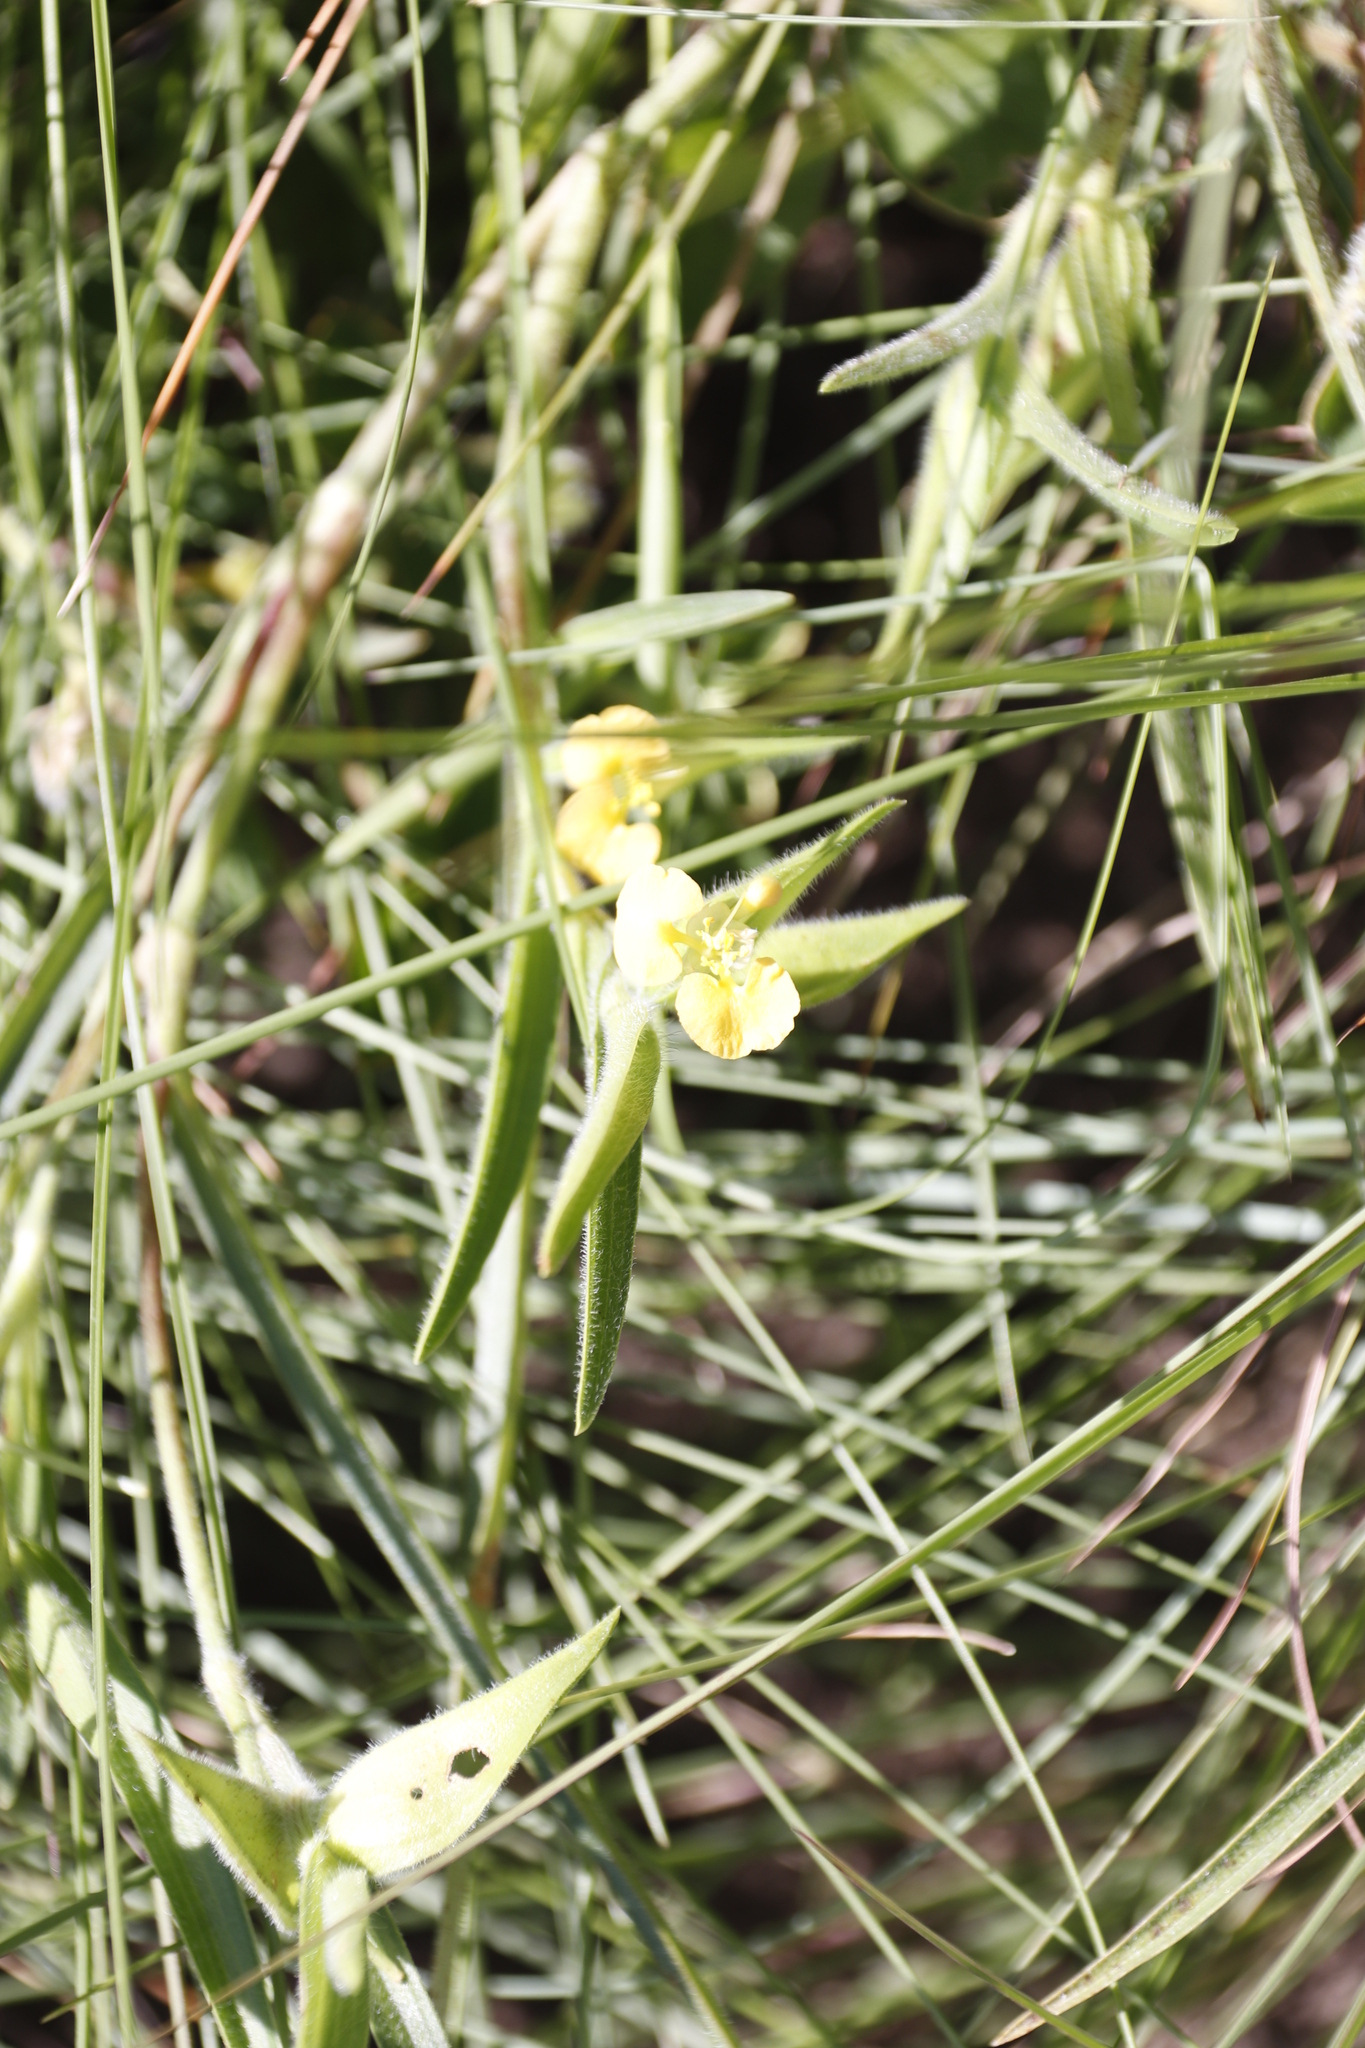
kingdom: Plantae
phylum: Tracheophyta
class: Liliopsida
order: Commelinales
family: Commelinaceae
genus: Commelina
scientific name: Commelina africana
